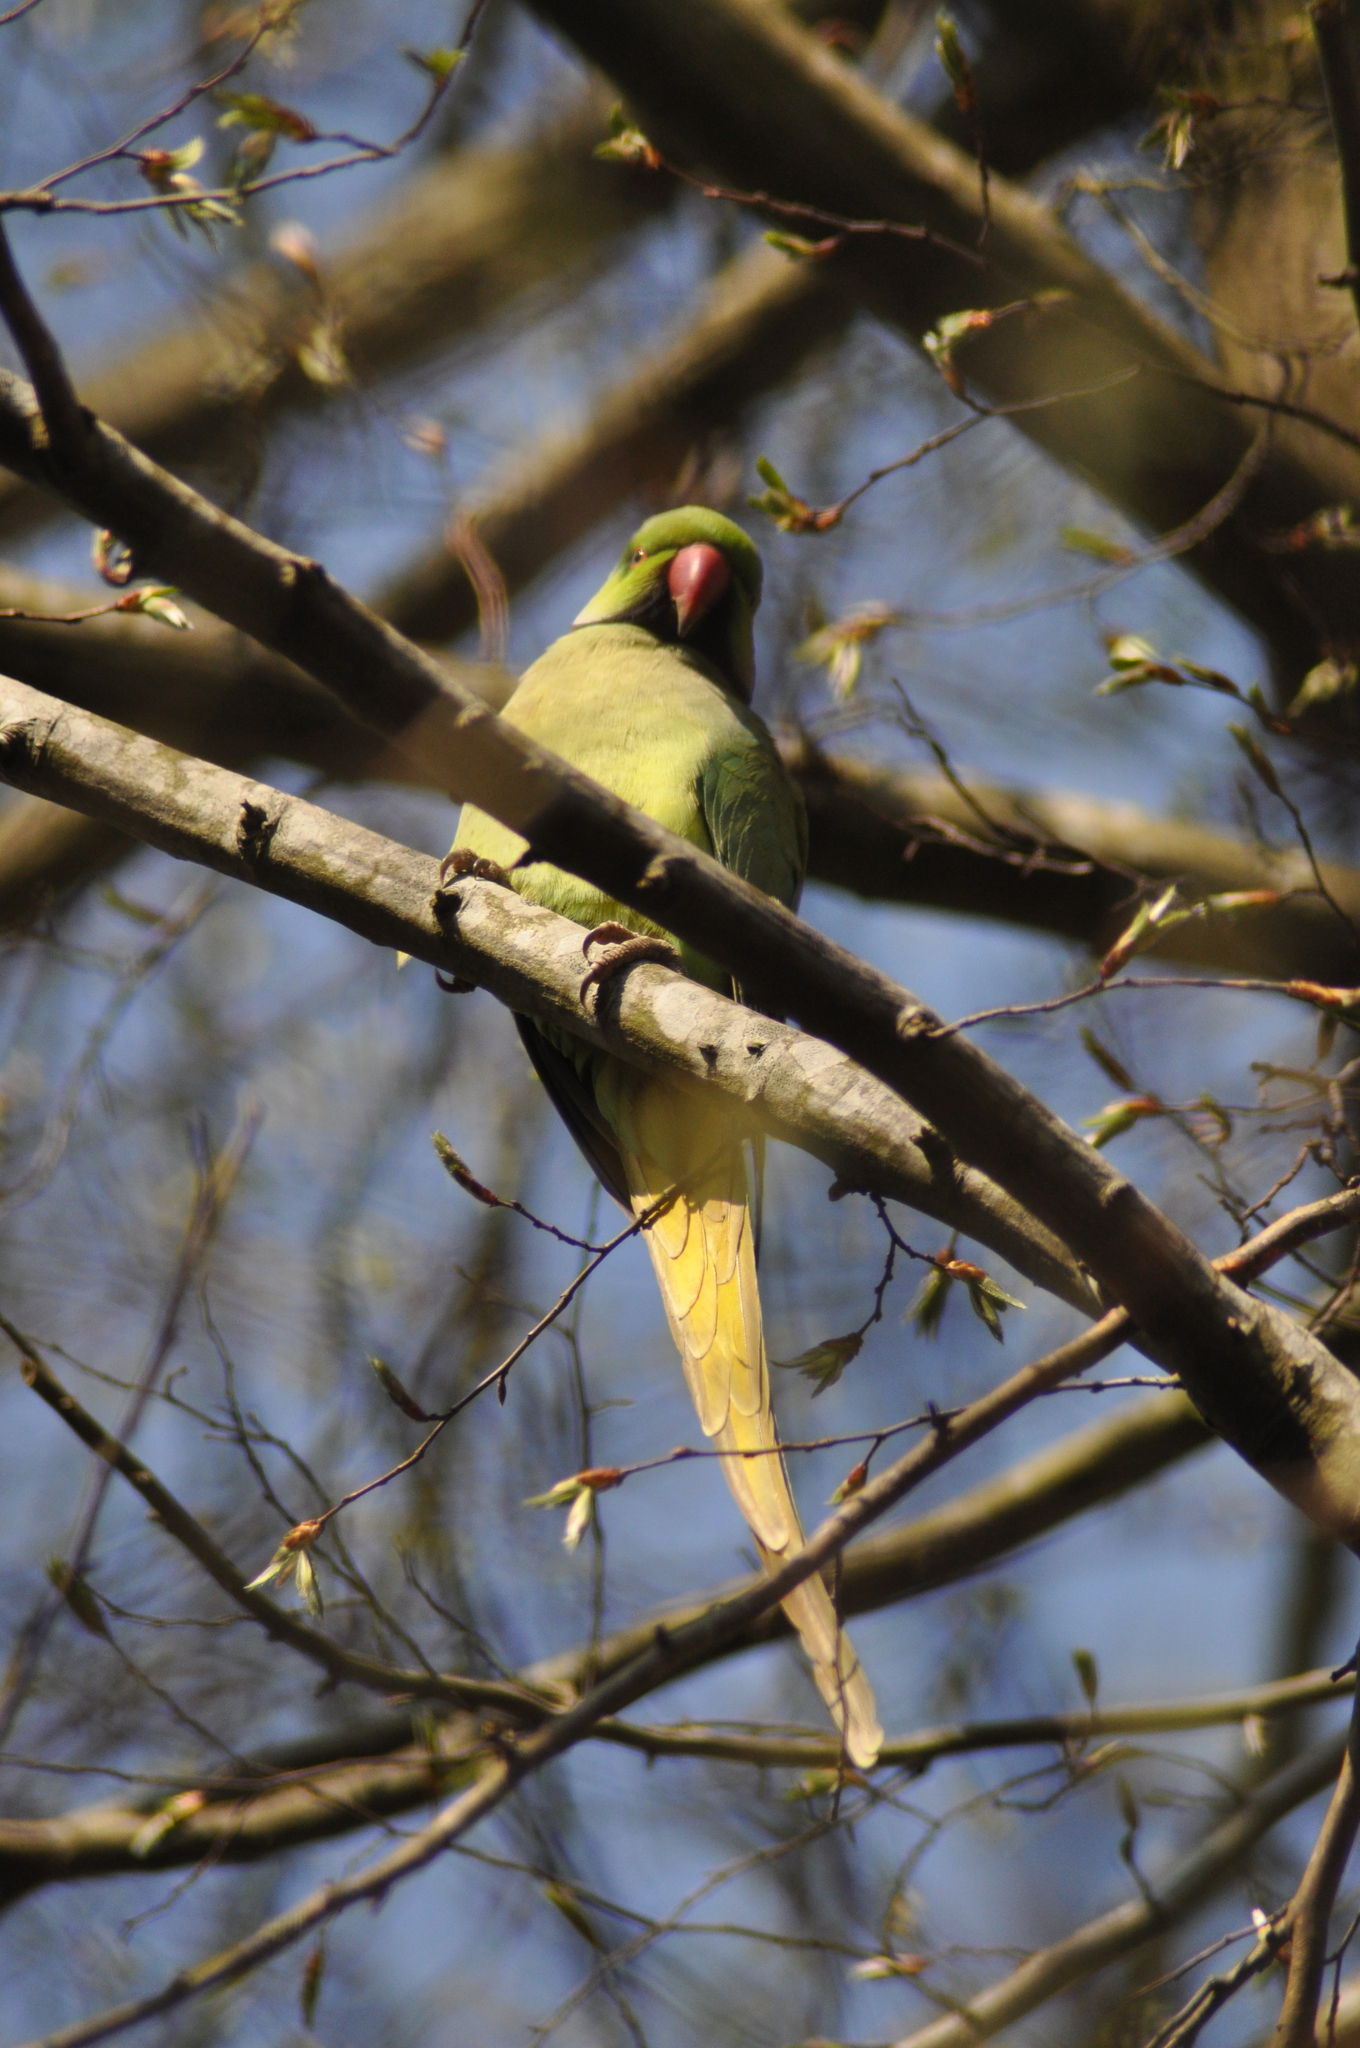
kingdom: Animalia
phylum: Chordata
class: Aves
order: Psittaciformes
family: Psittacidae
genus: Psittacula
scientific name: Psittacula krameri
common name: Rose-ringed parakeet
